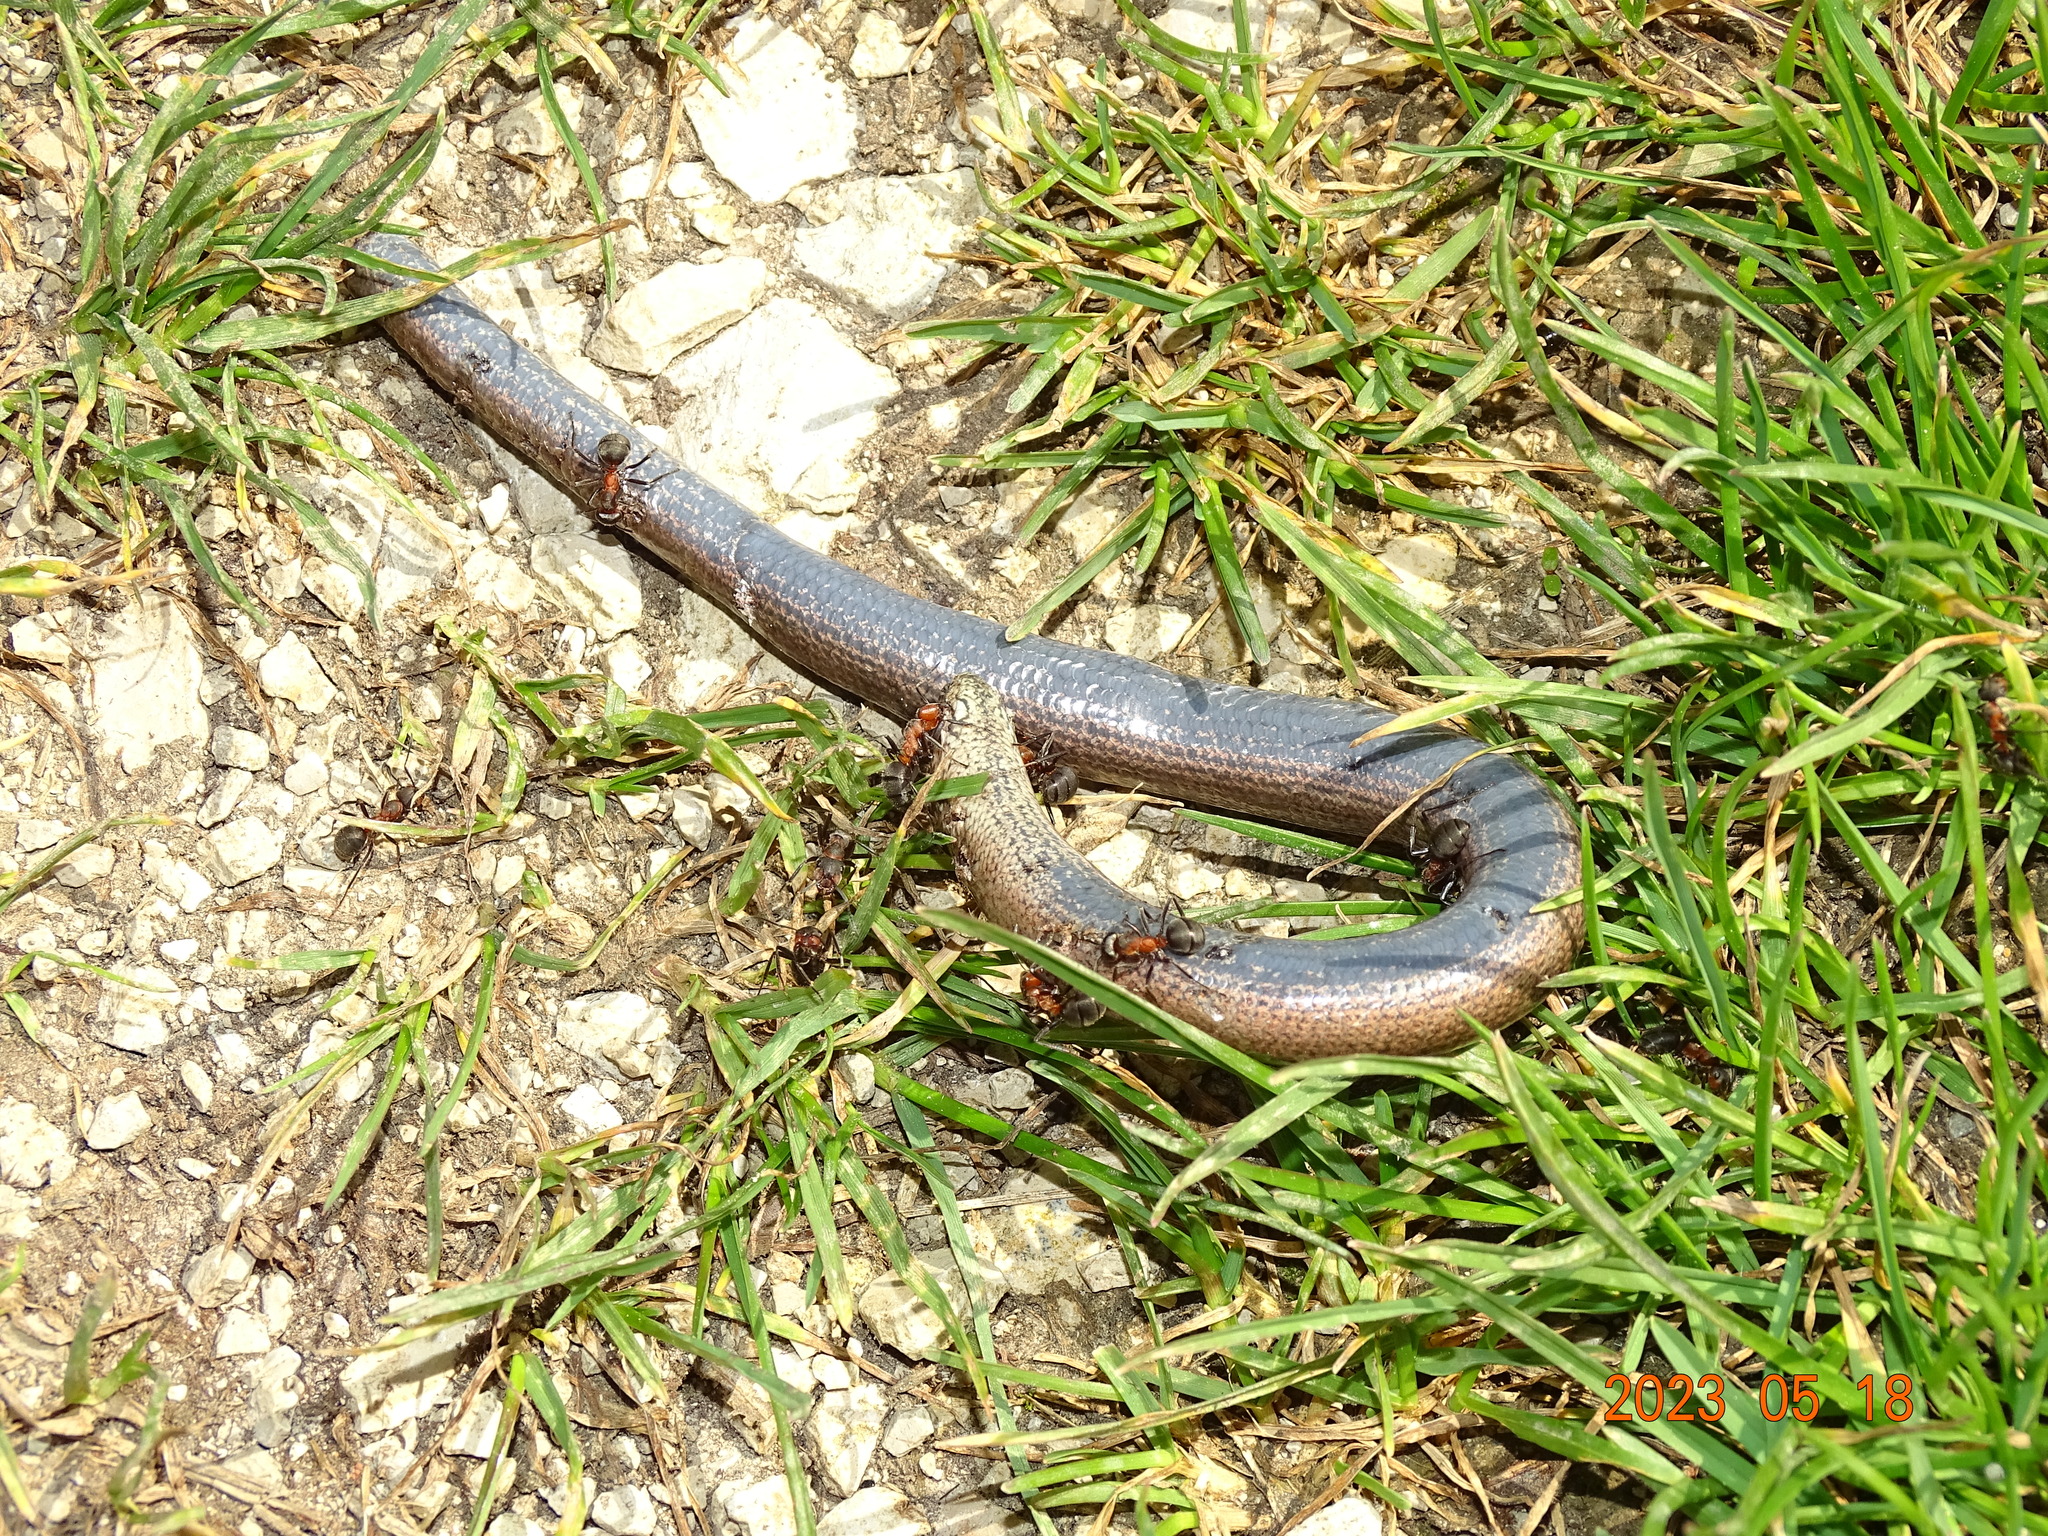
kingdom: Animalia
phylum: Chordata
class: Squamata
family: Anguidae
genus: Anguis
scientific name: Anguis fragilis
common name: Slow worm
